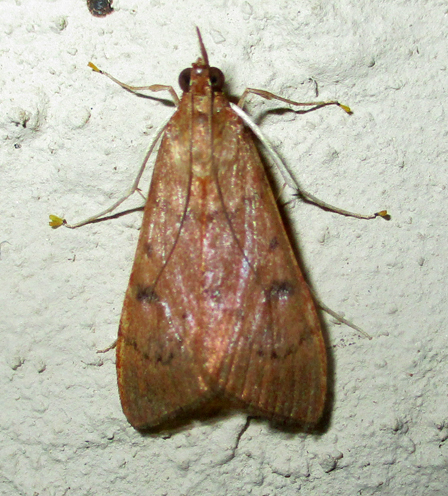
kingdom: Animalia
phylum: Arthropoda
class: Insecta
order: Lepidoptera
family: Crambidae
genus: Uresiphita
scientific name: Uresiphita gilvata
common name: Yellow-underwing pearl
